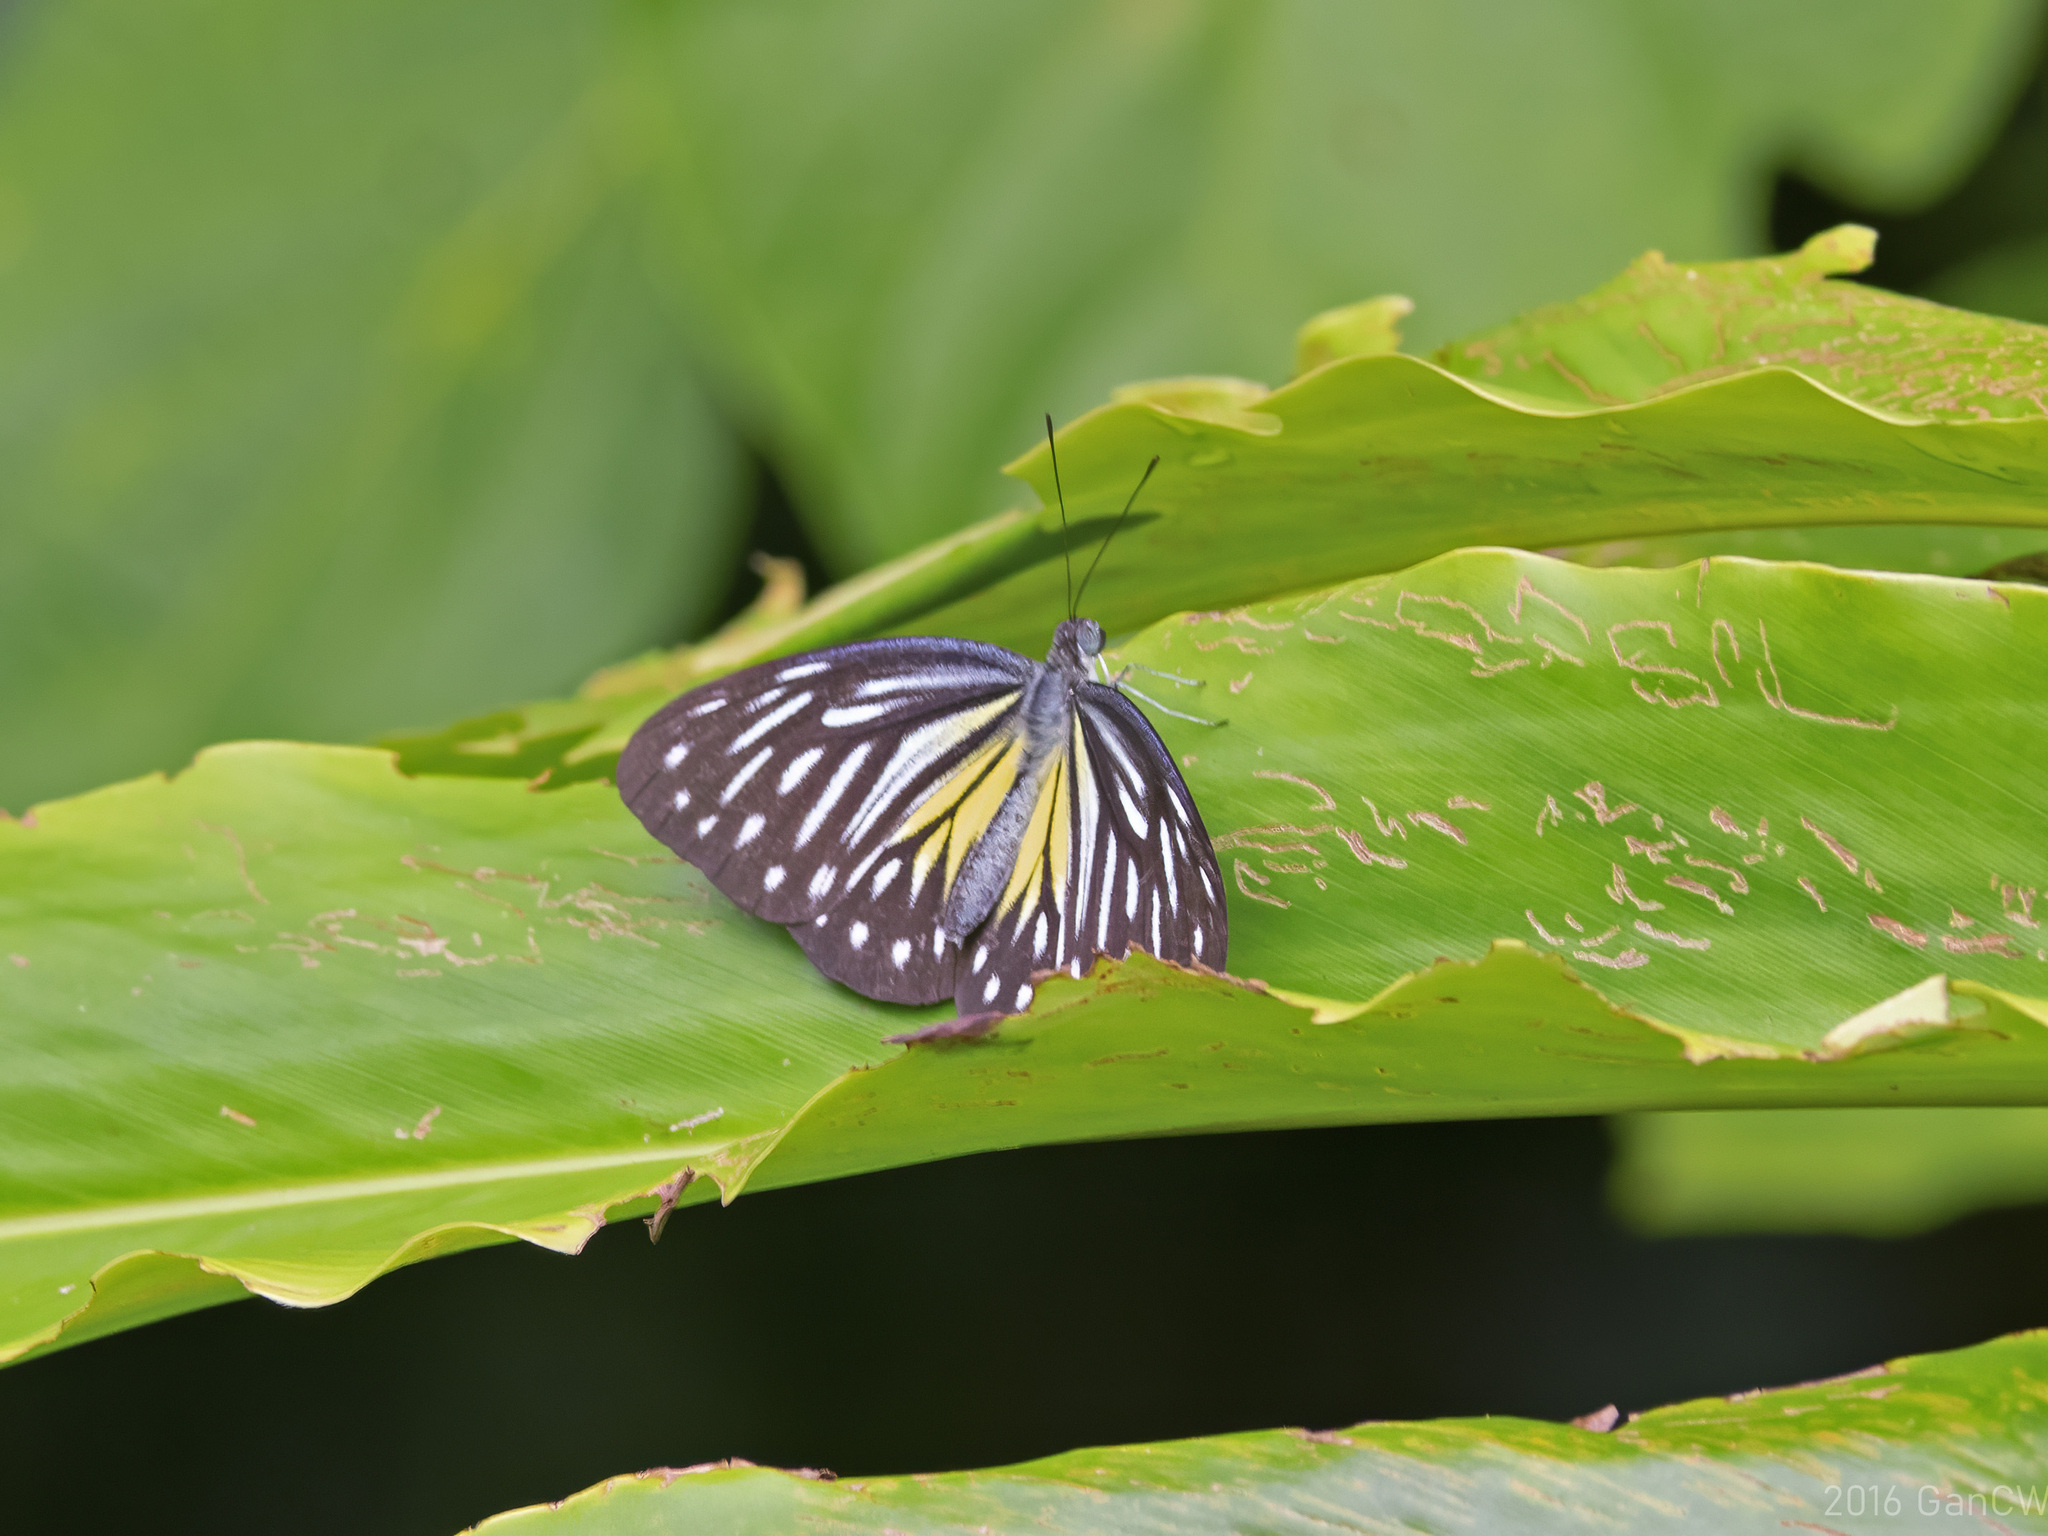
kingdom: Animalia
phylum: Arthropoda
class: Insecta
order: Lepidoptera
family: Pieridae
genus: Pareronia
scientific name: Pareronia valeria
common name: Common wanderer?
